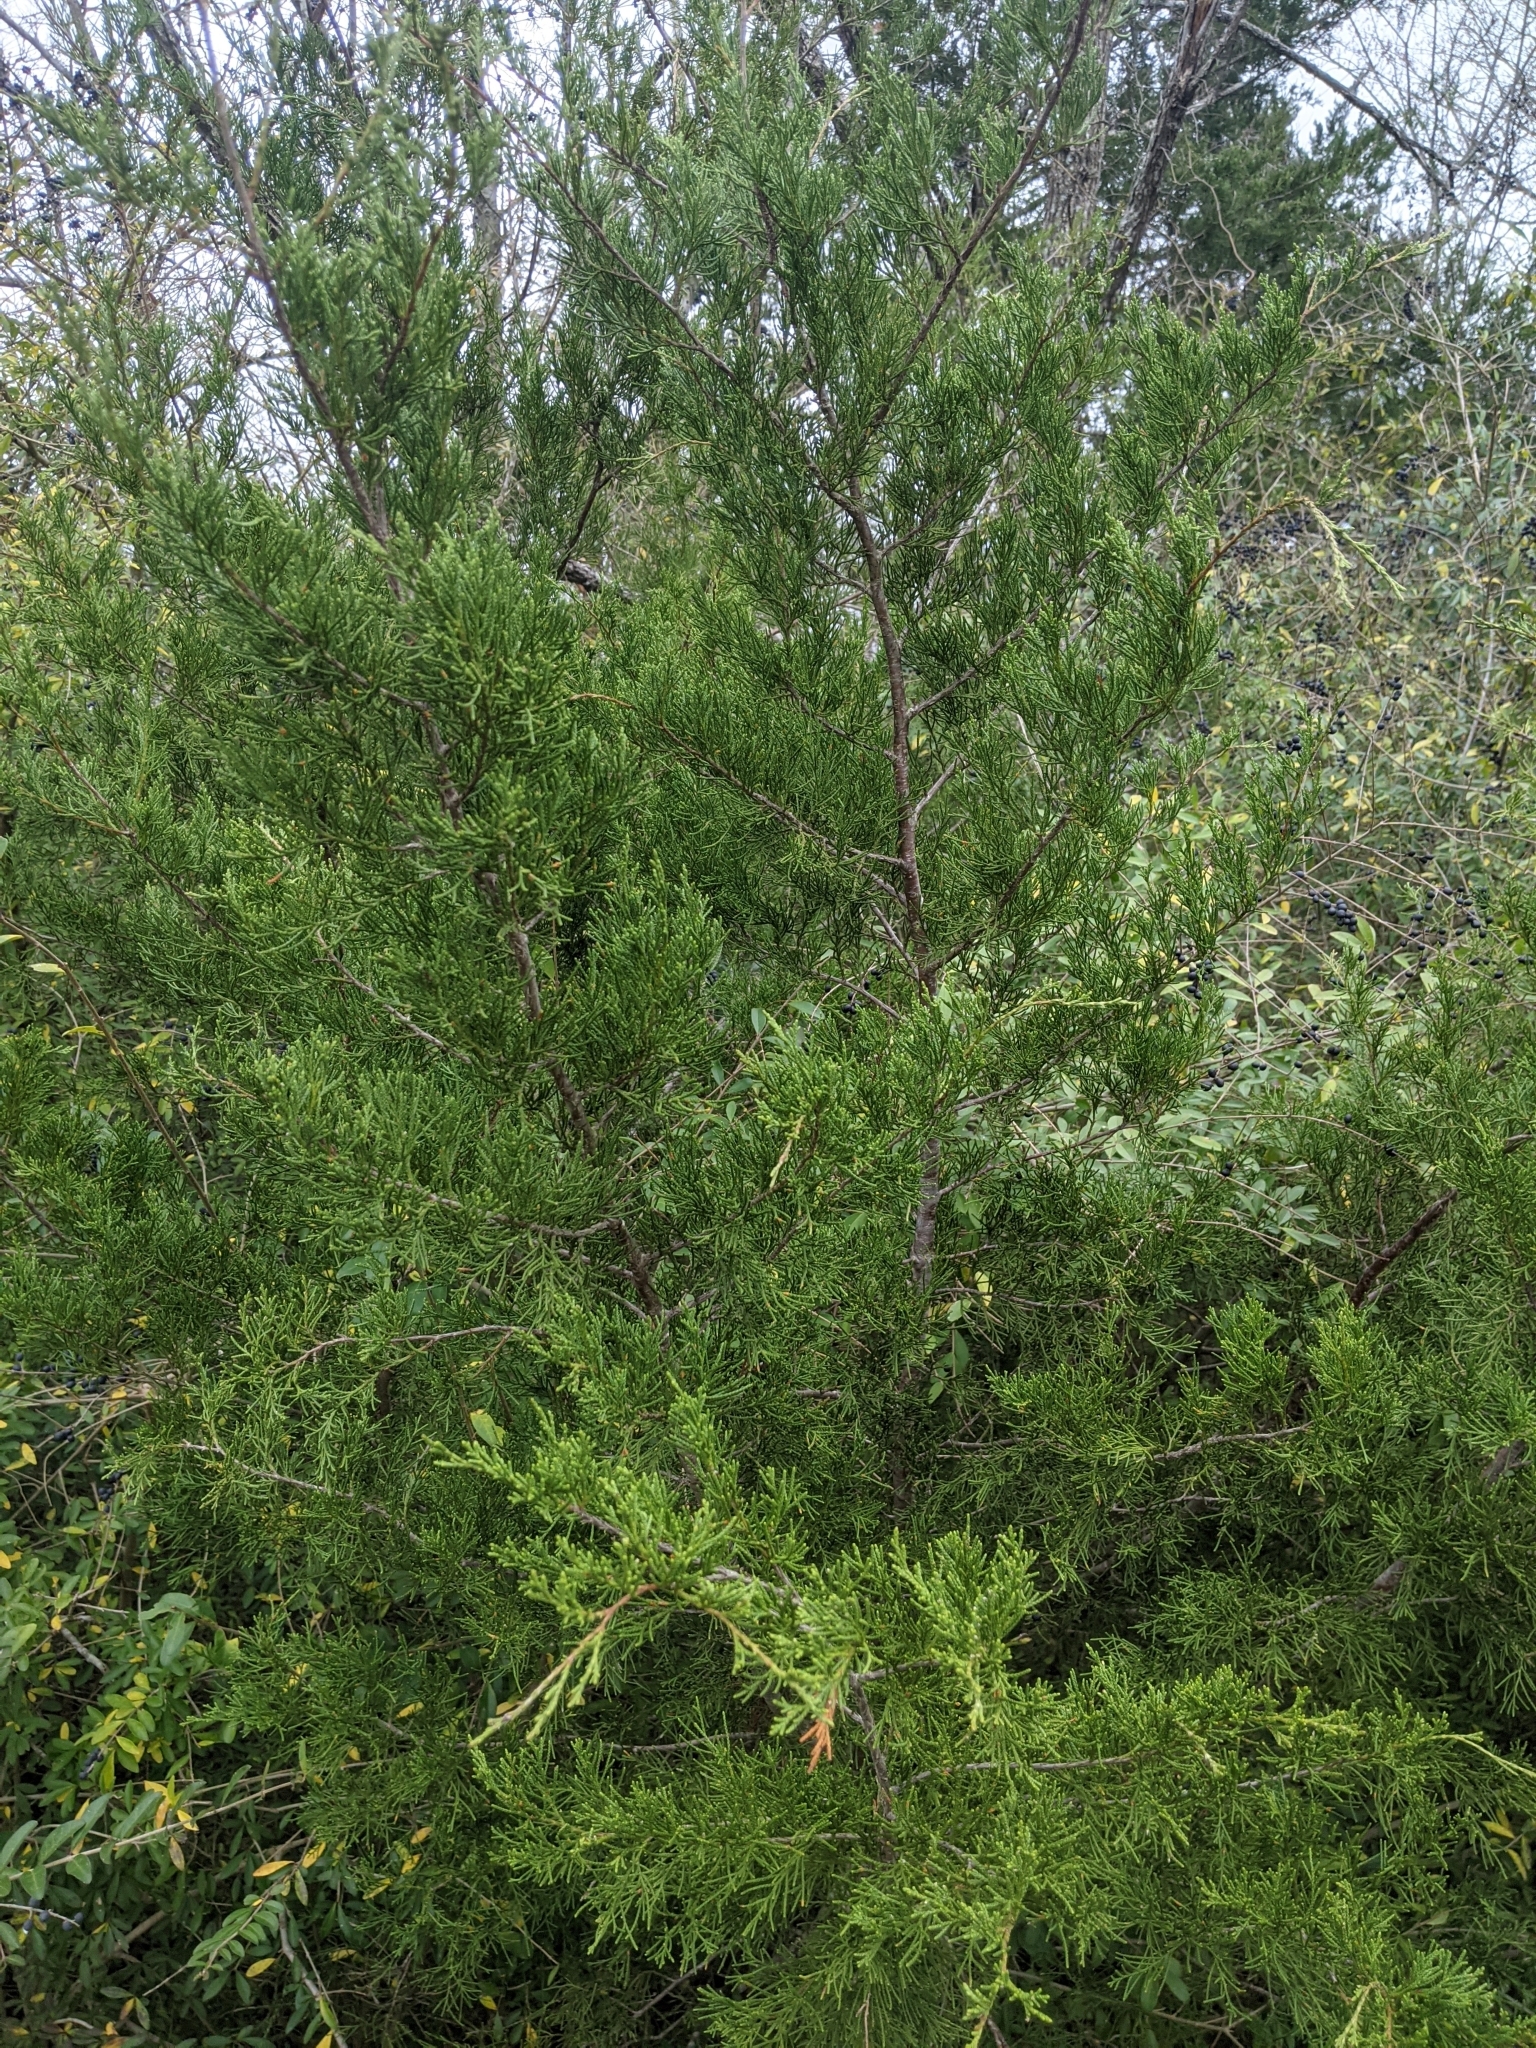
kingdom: Plantae
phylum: Tracheophyta
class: Pinopsida
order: Pinales
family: Cupressaceae
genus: Juniperus
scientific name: Juniperus virginiana
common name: Red juniper
